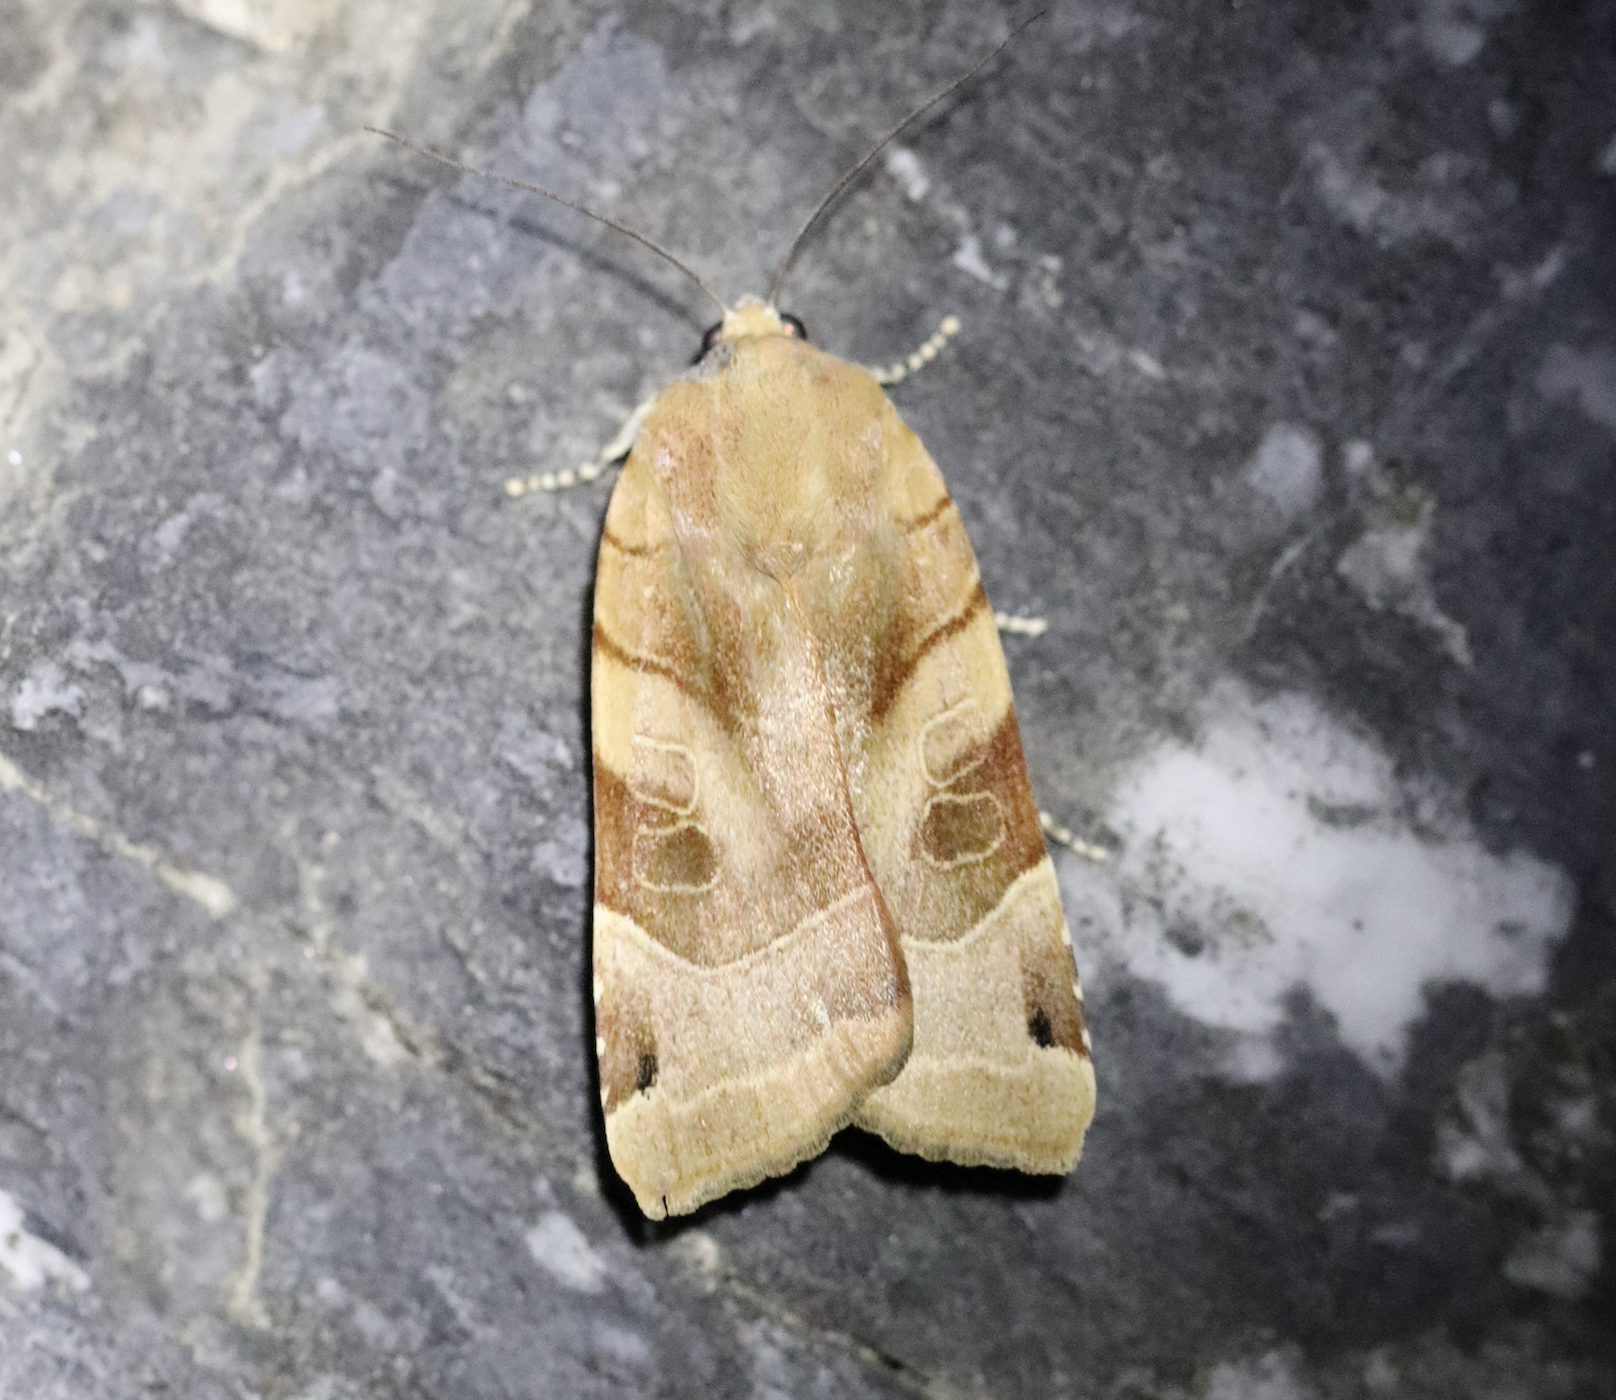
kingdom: Animalia
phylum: Arthropoda
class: Insecta
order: Lepidoptera
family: Noctuidae
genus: Noctua
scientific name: Noctua fimbriata
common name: Broad-bordered yellow underwing
